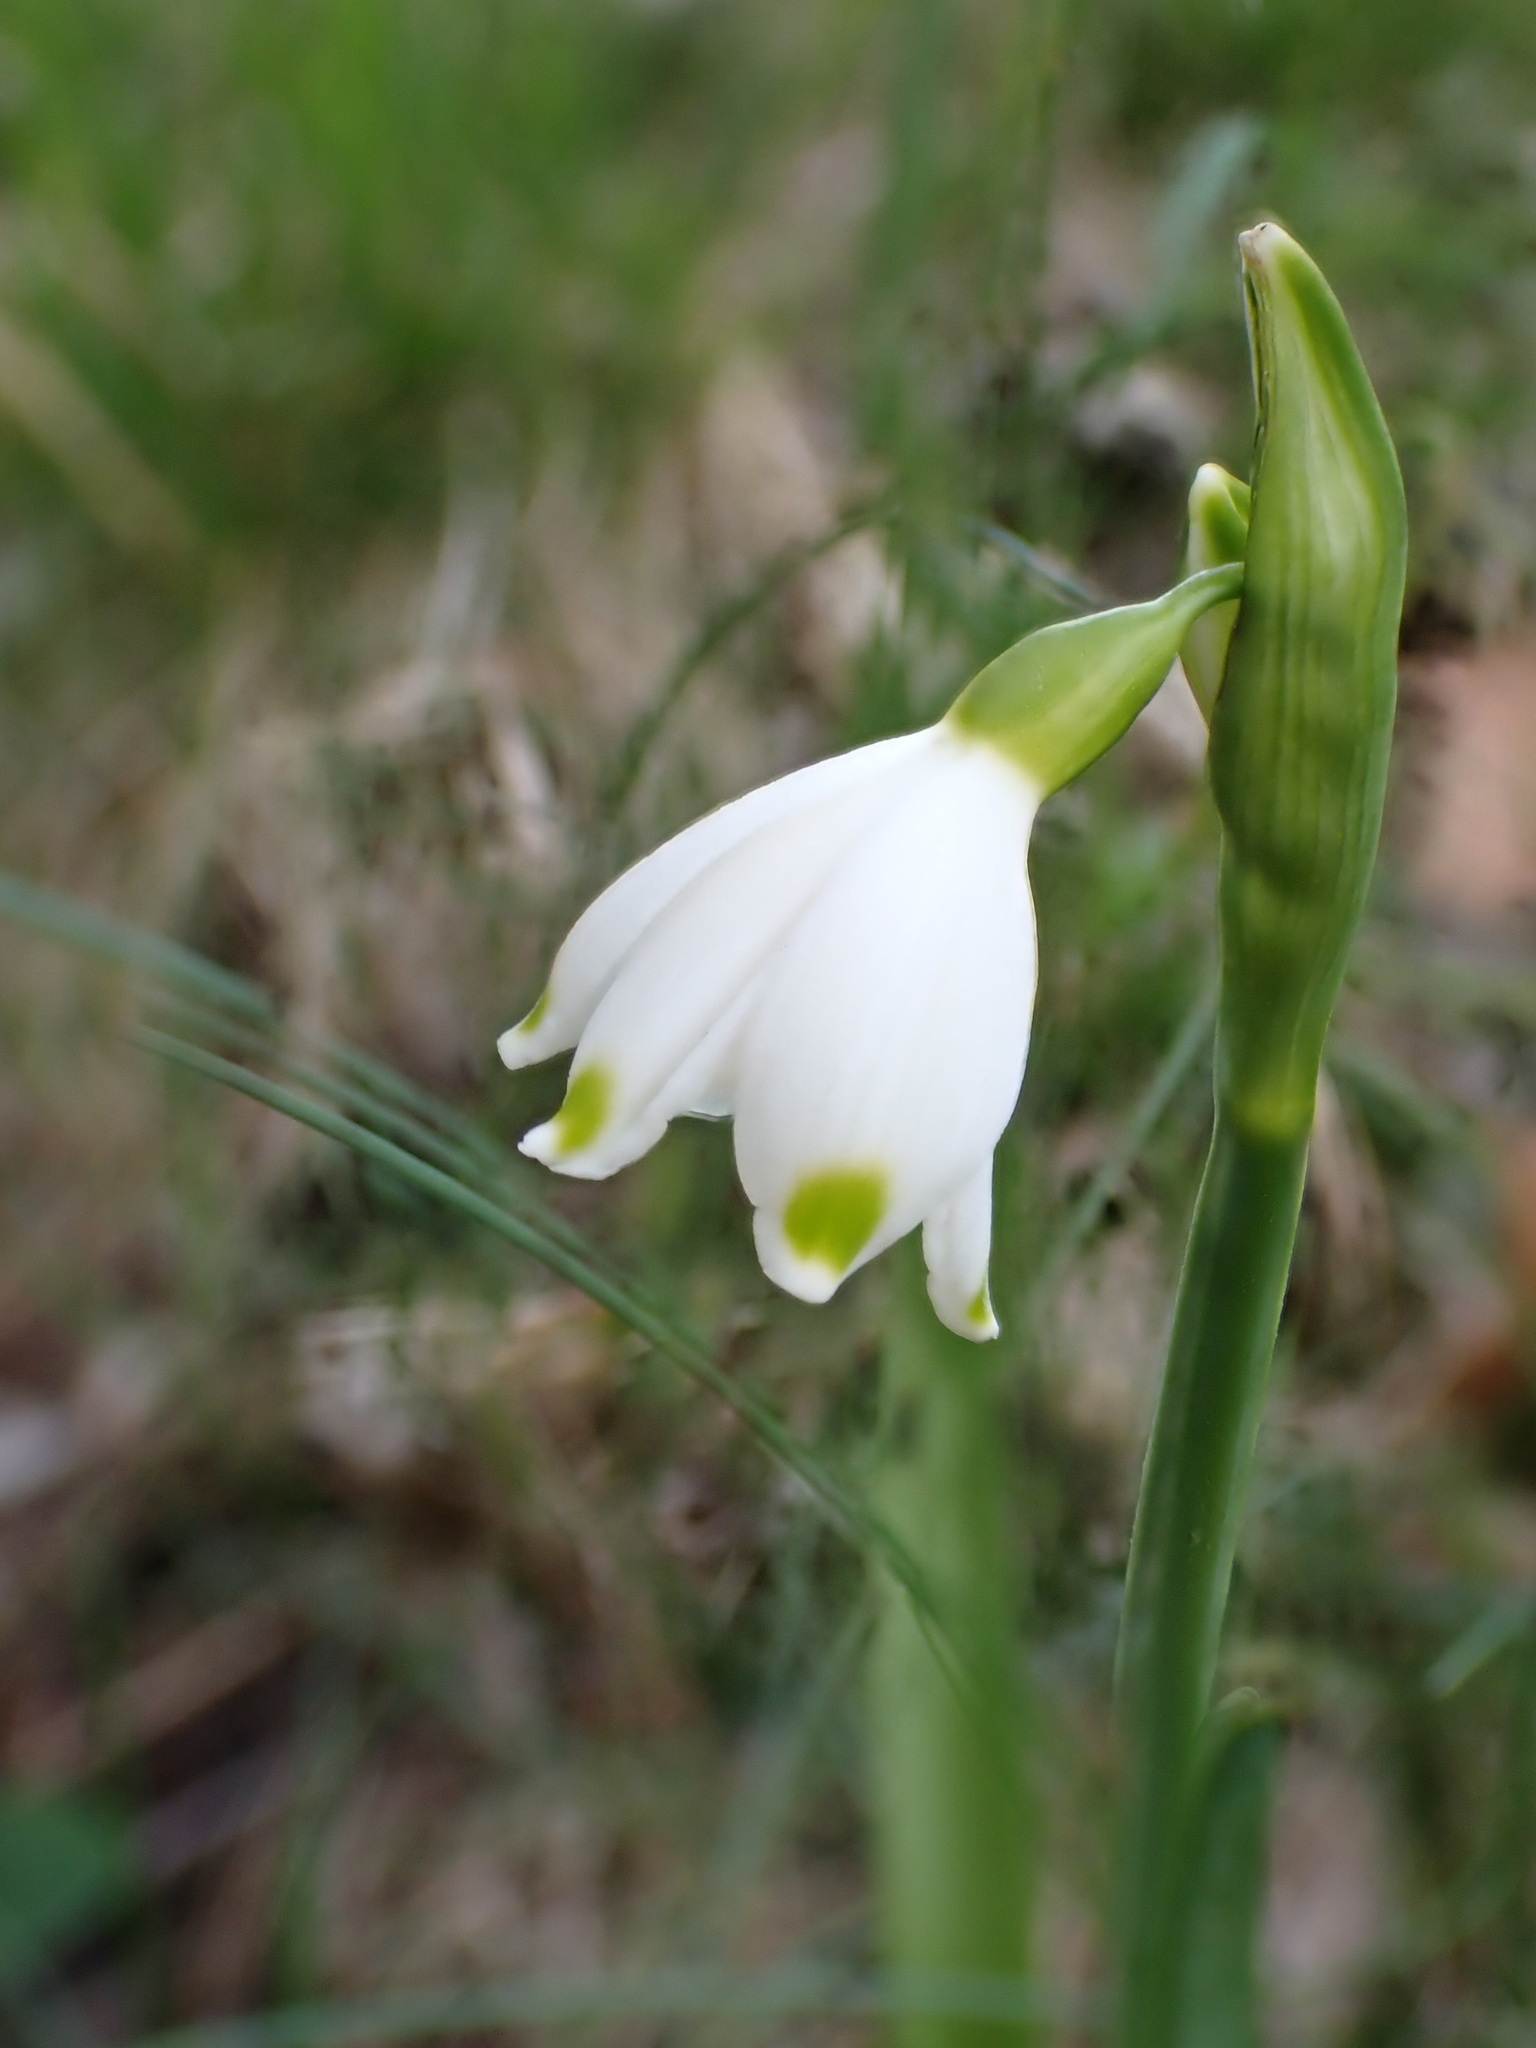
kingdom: Plantae
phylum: Tracheophyta
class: Liliopsida
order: Asparagales
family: Amaryllidaceae
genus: Leucojum
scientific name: Leucojum aestivum
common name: Summer snowflake
